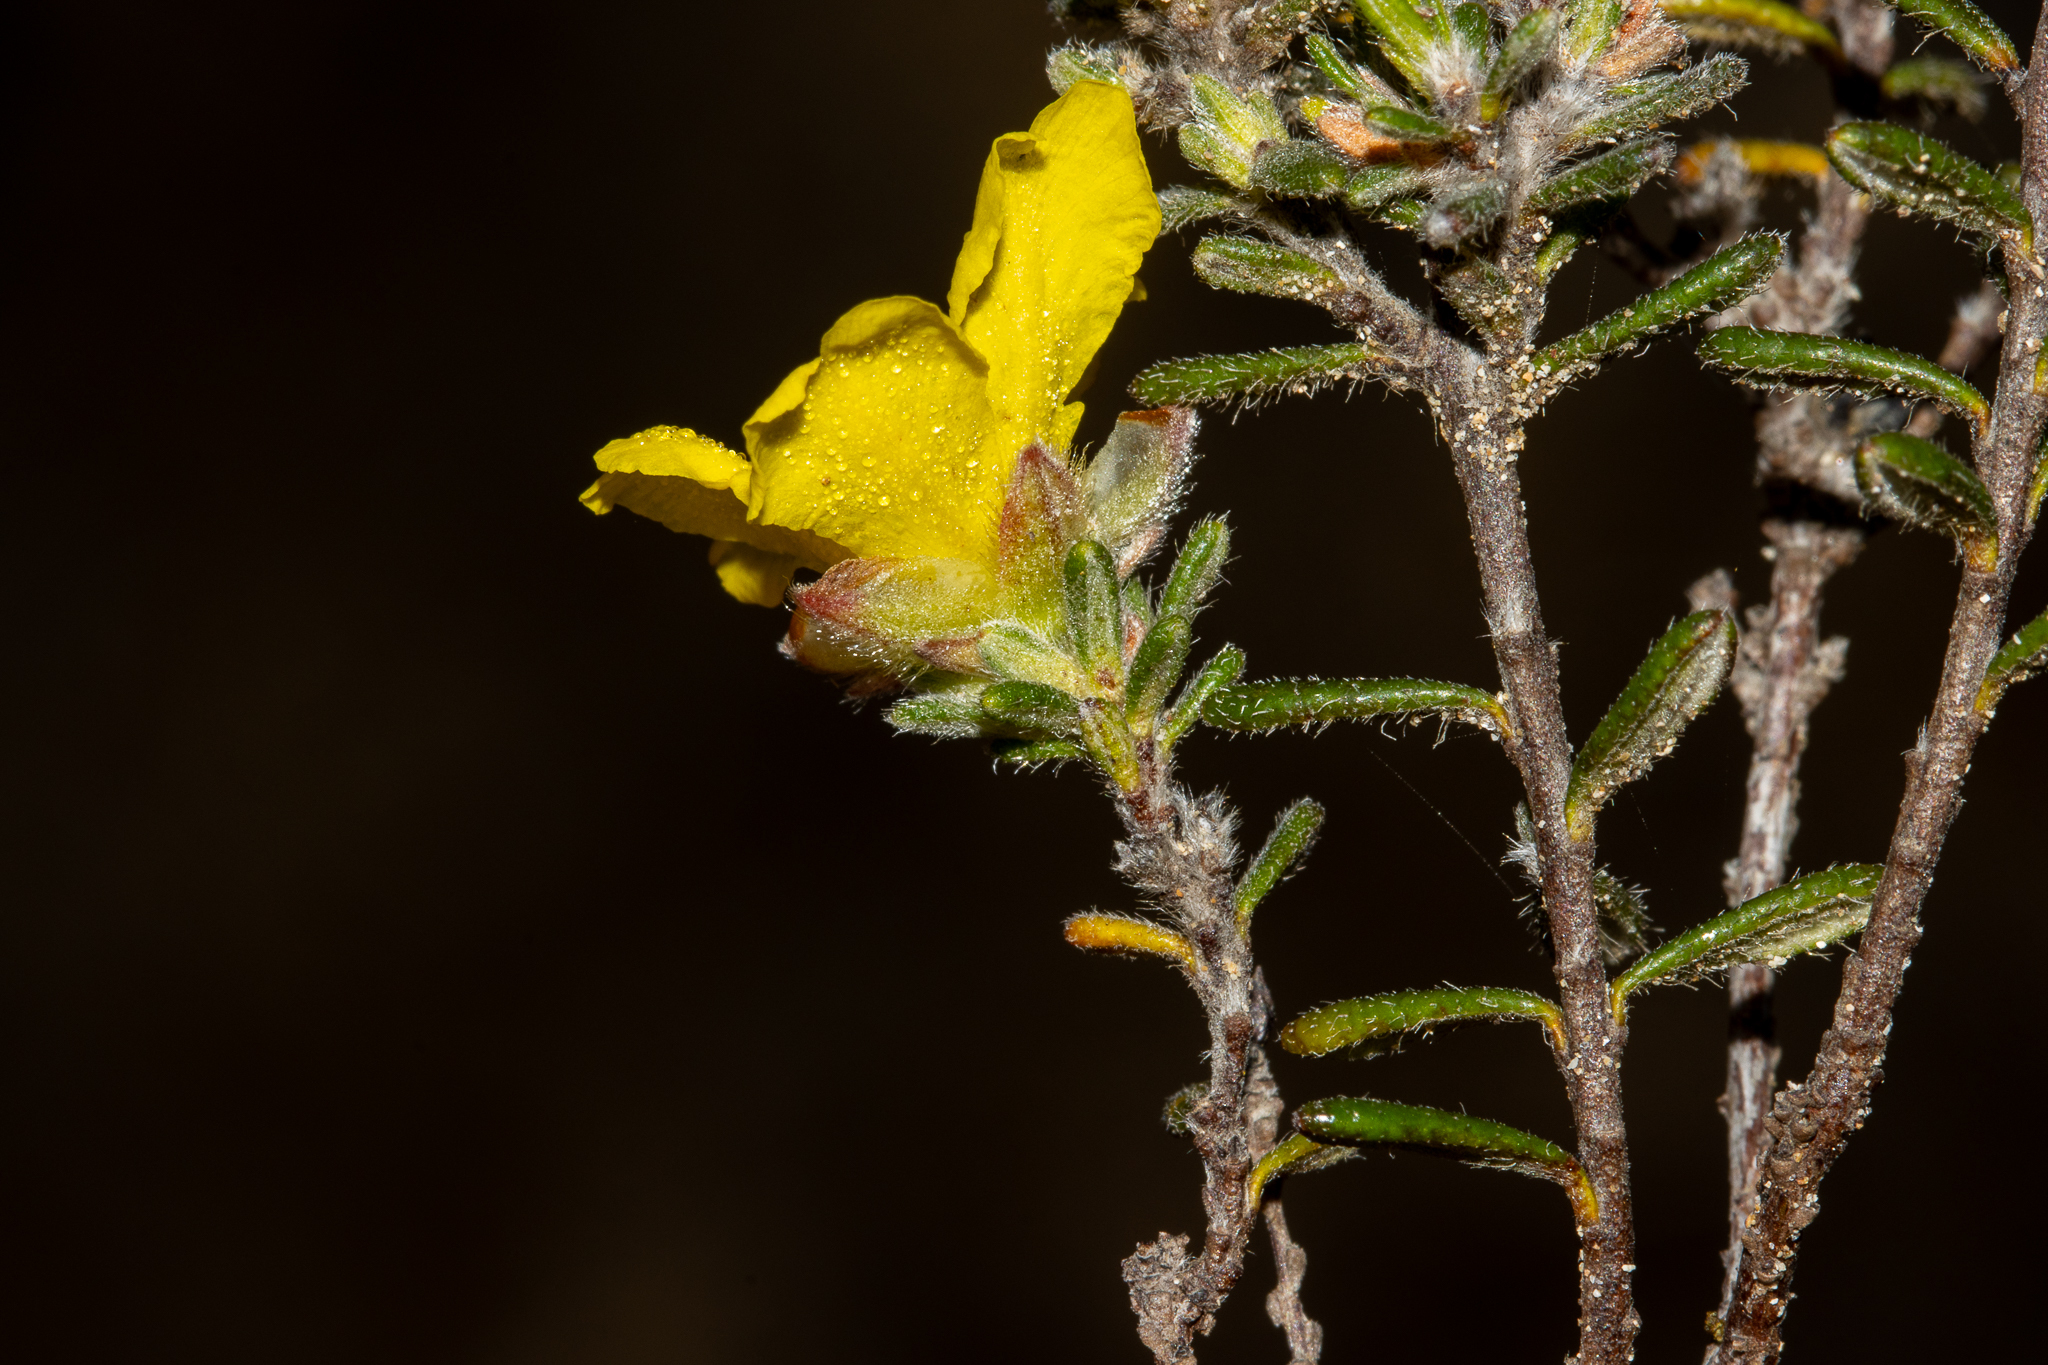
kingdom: Plantae
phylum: Tracheophyta
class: Magnoliopsida
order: Dilleniales
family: Dilleniaceae
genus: Hibbertia
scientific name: Hibbertia sericea
